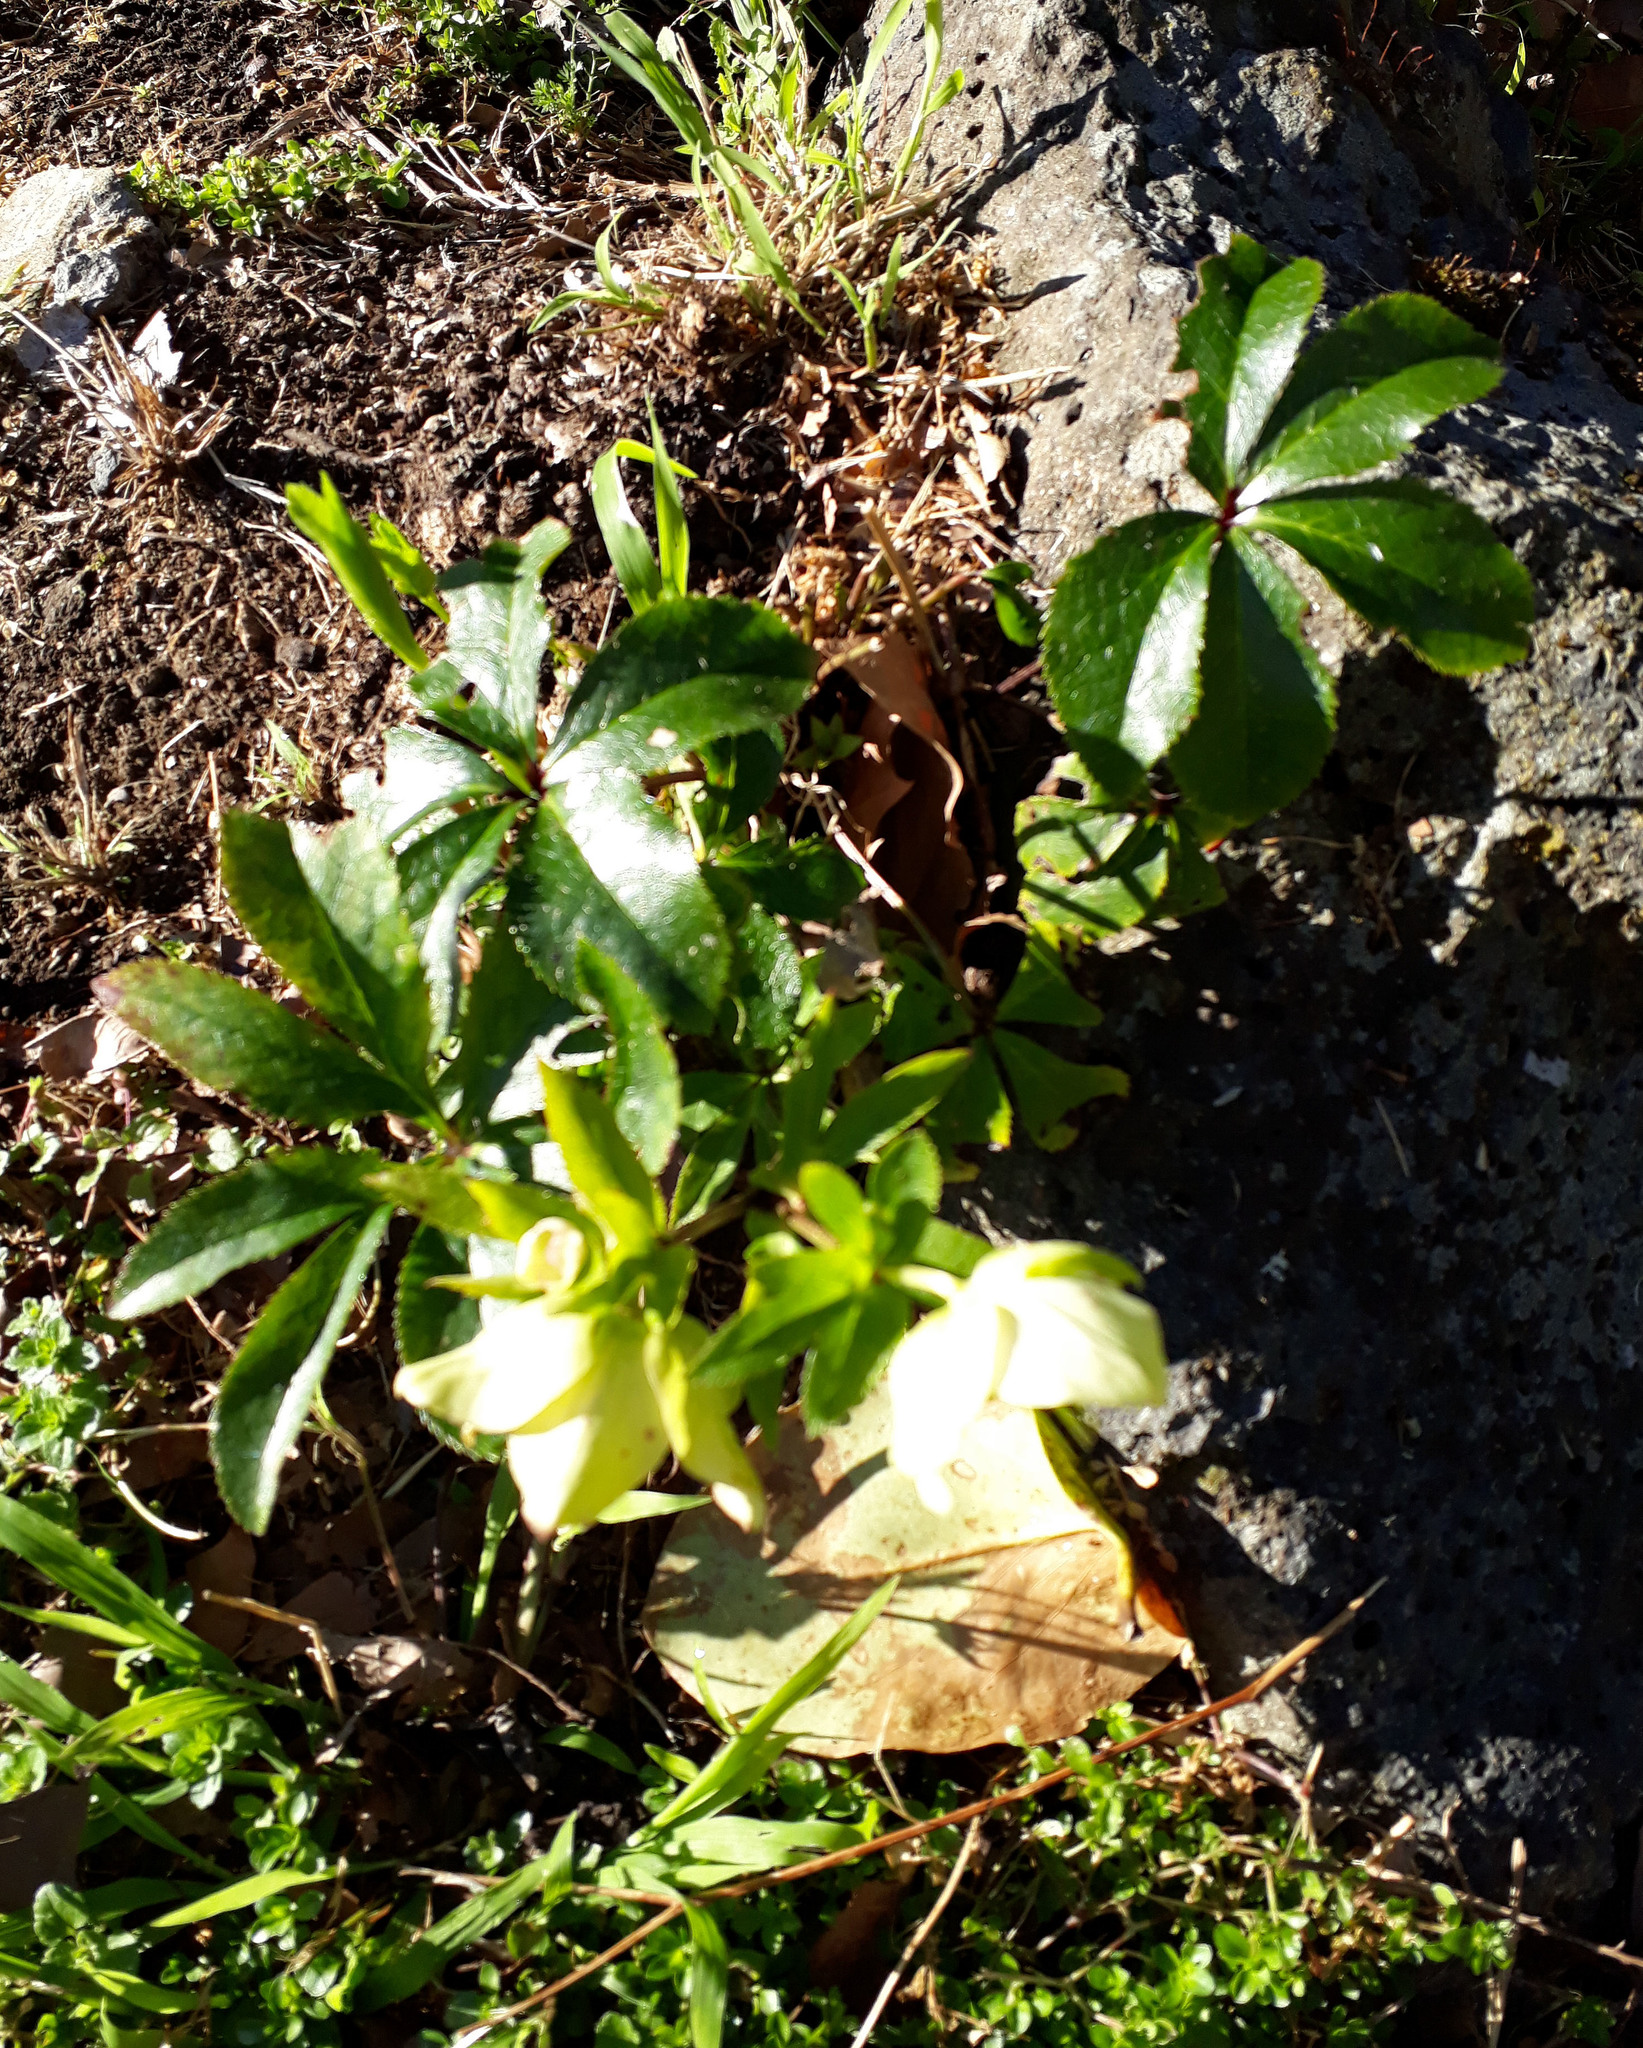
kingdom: Plantae
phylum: Tracheophyta
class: Magnoliopsida
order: Ranunculales
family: Ranunculaceae
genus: Helleborus
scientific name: Helleborus orientalis
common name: Lenten-rose
